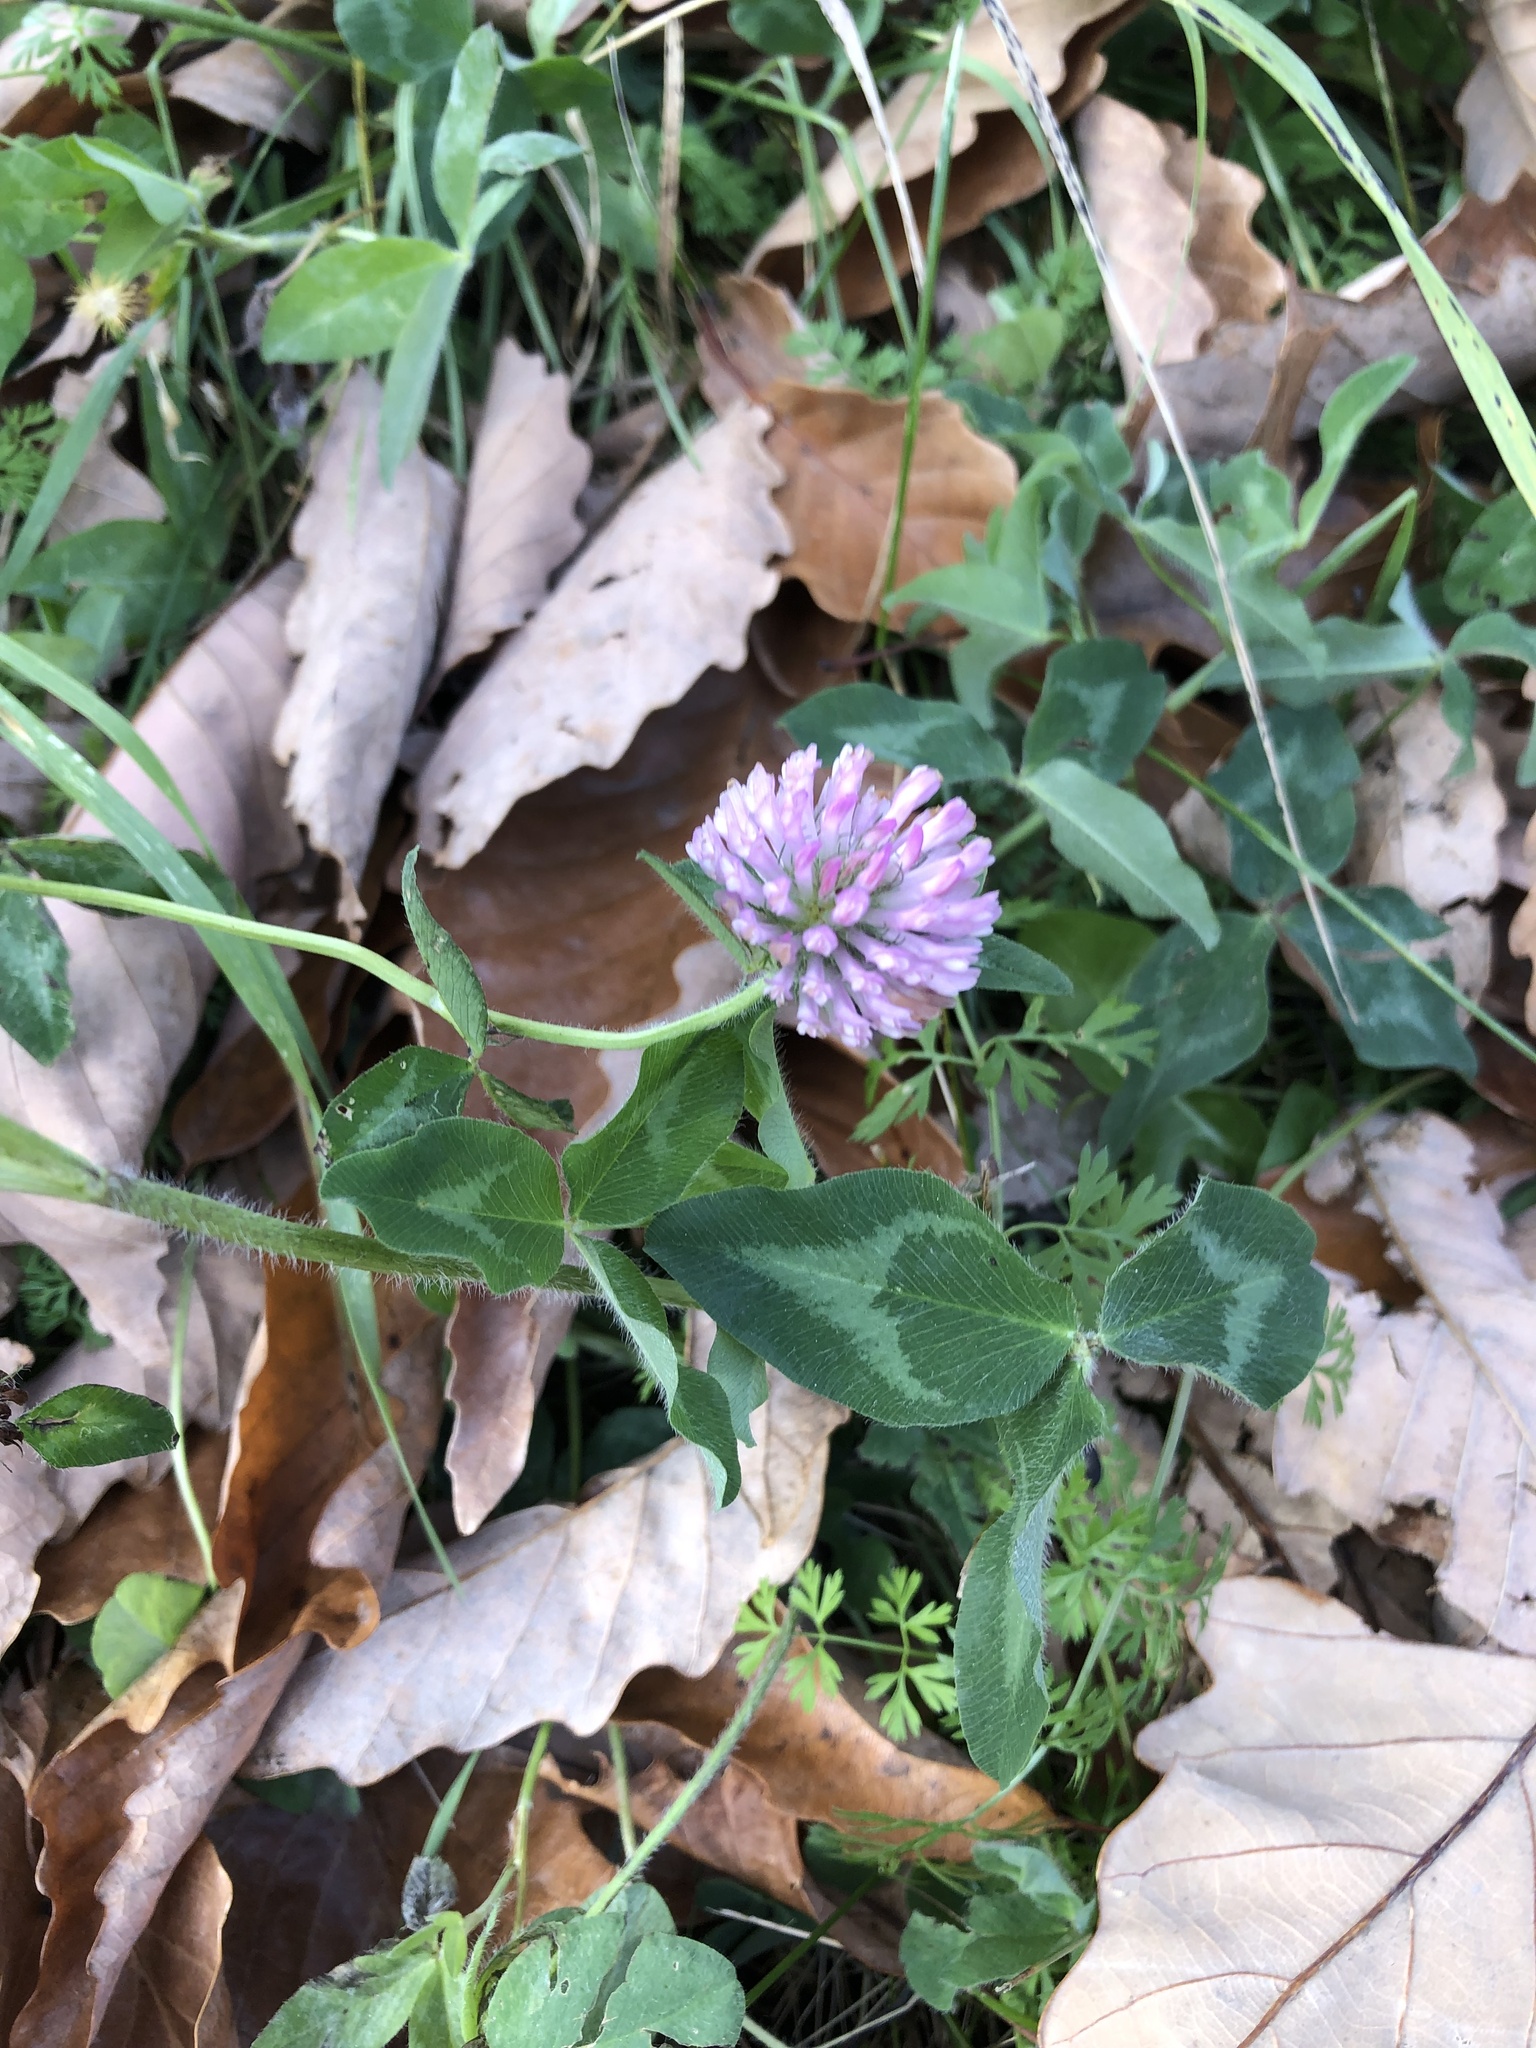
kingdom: Plantae
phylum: Tracheophyta
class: Magnoliopsida
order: Fabales
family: Fabaceae
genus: Trifolium
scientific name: Trifolium pratense
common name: Red clover
